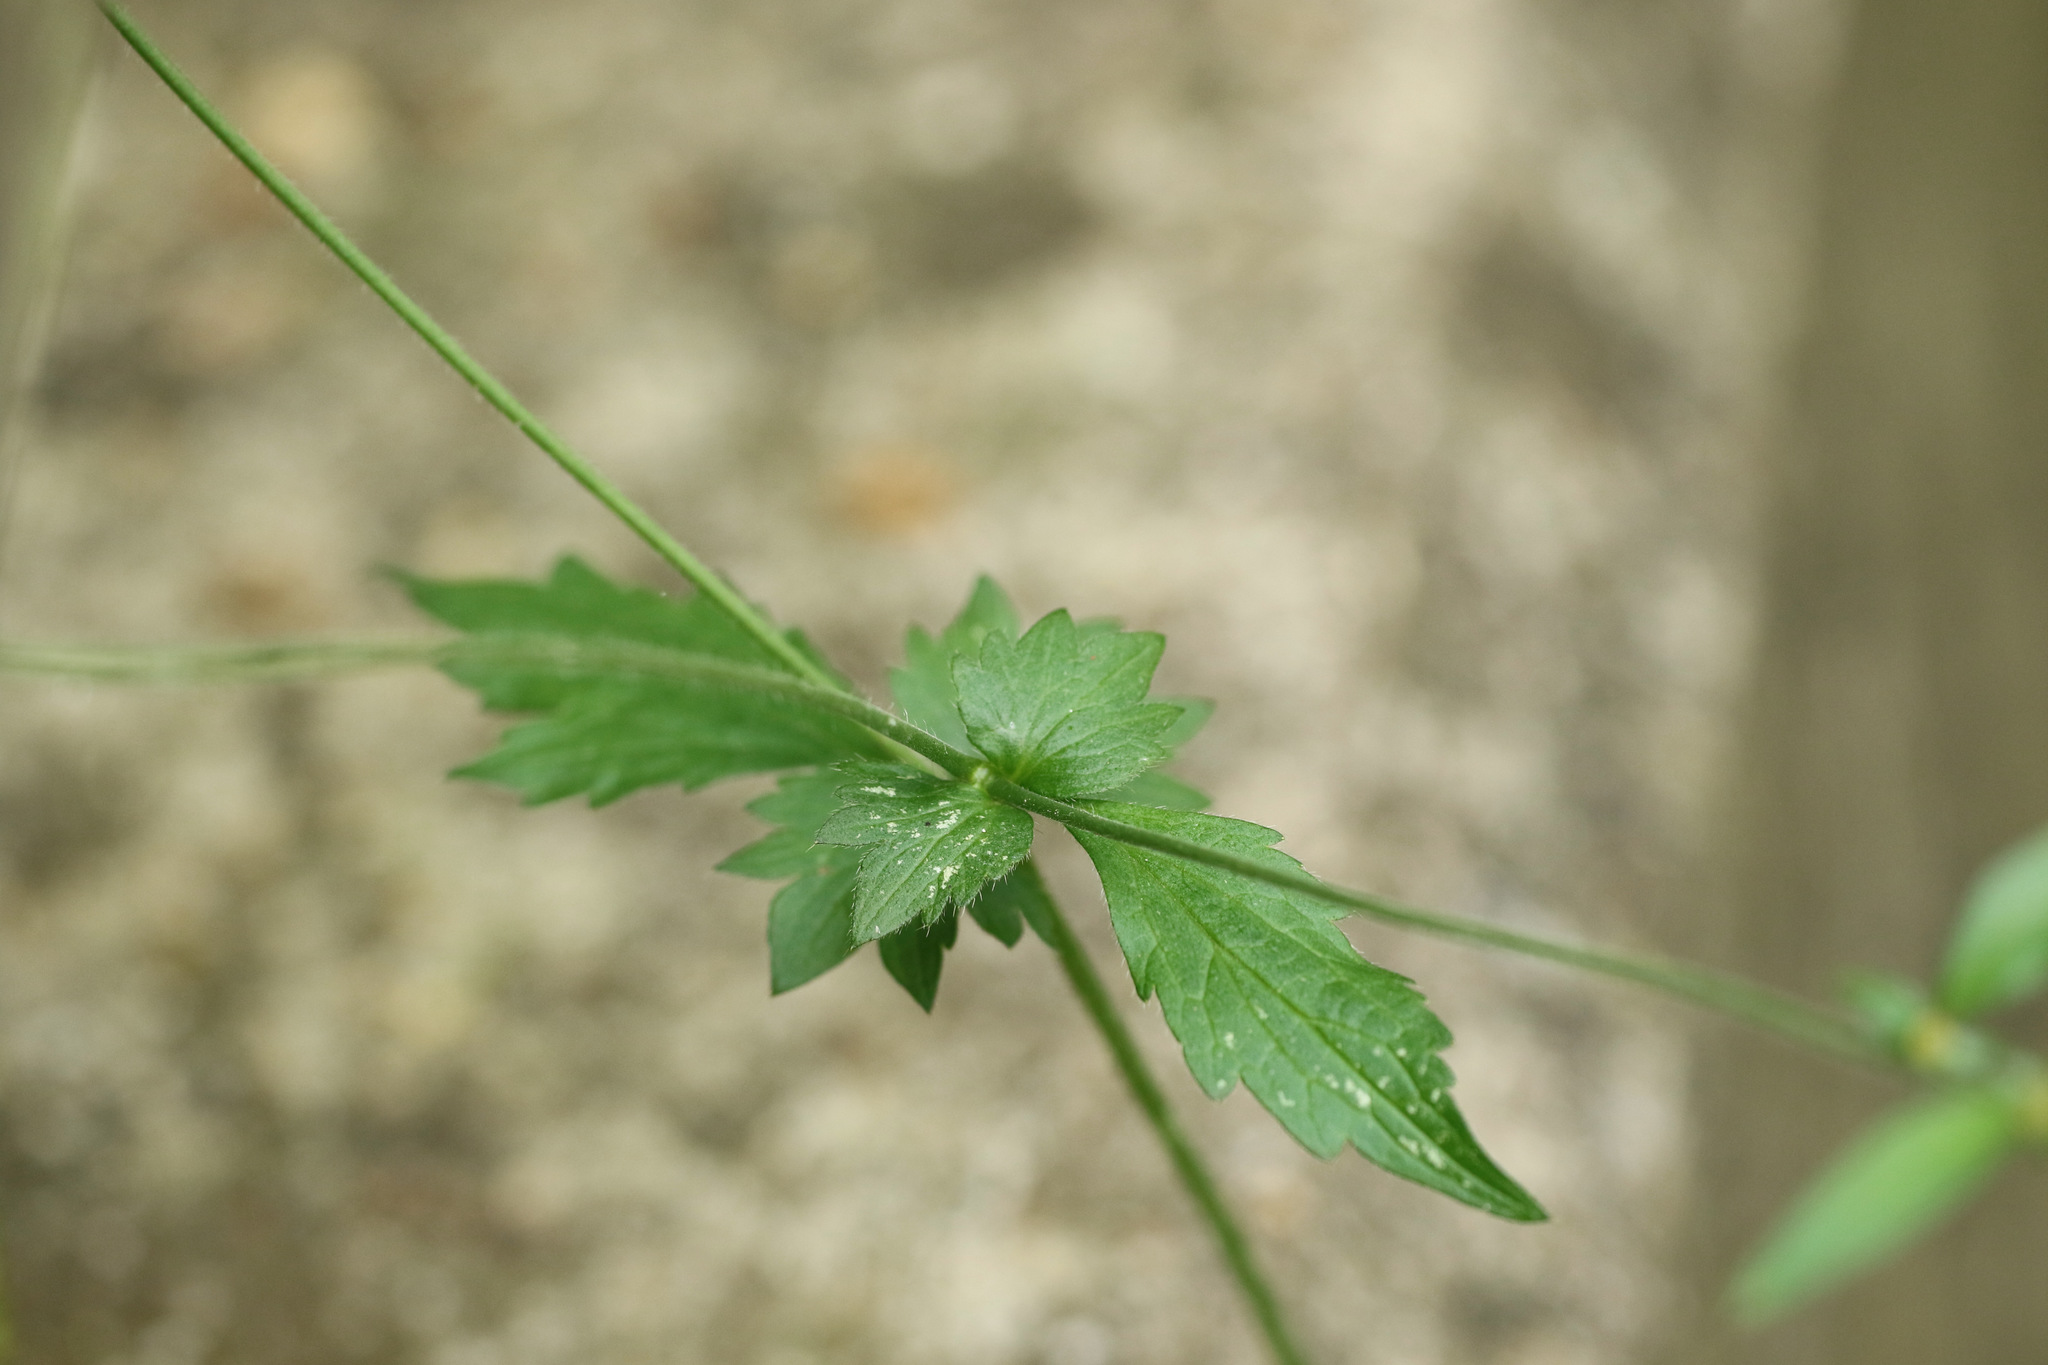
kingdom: Plantae
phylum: Tracheophyta
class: Magnoliopsida
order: Rosales
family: Rosaceae
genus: Geum
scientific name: Geum urbanum
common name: Wood avens
